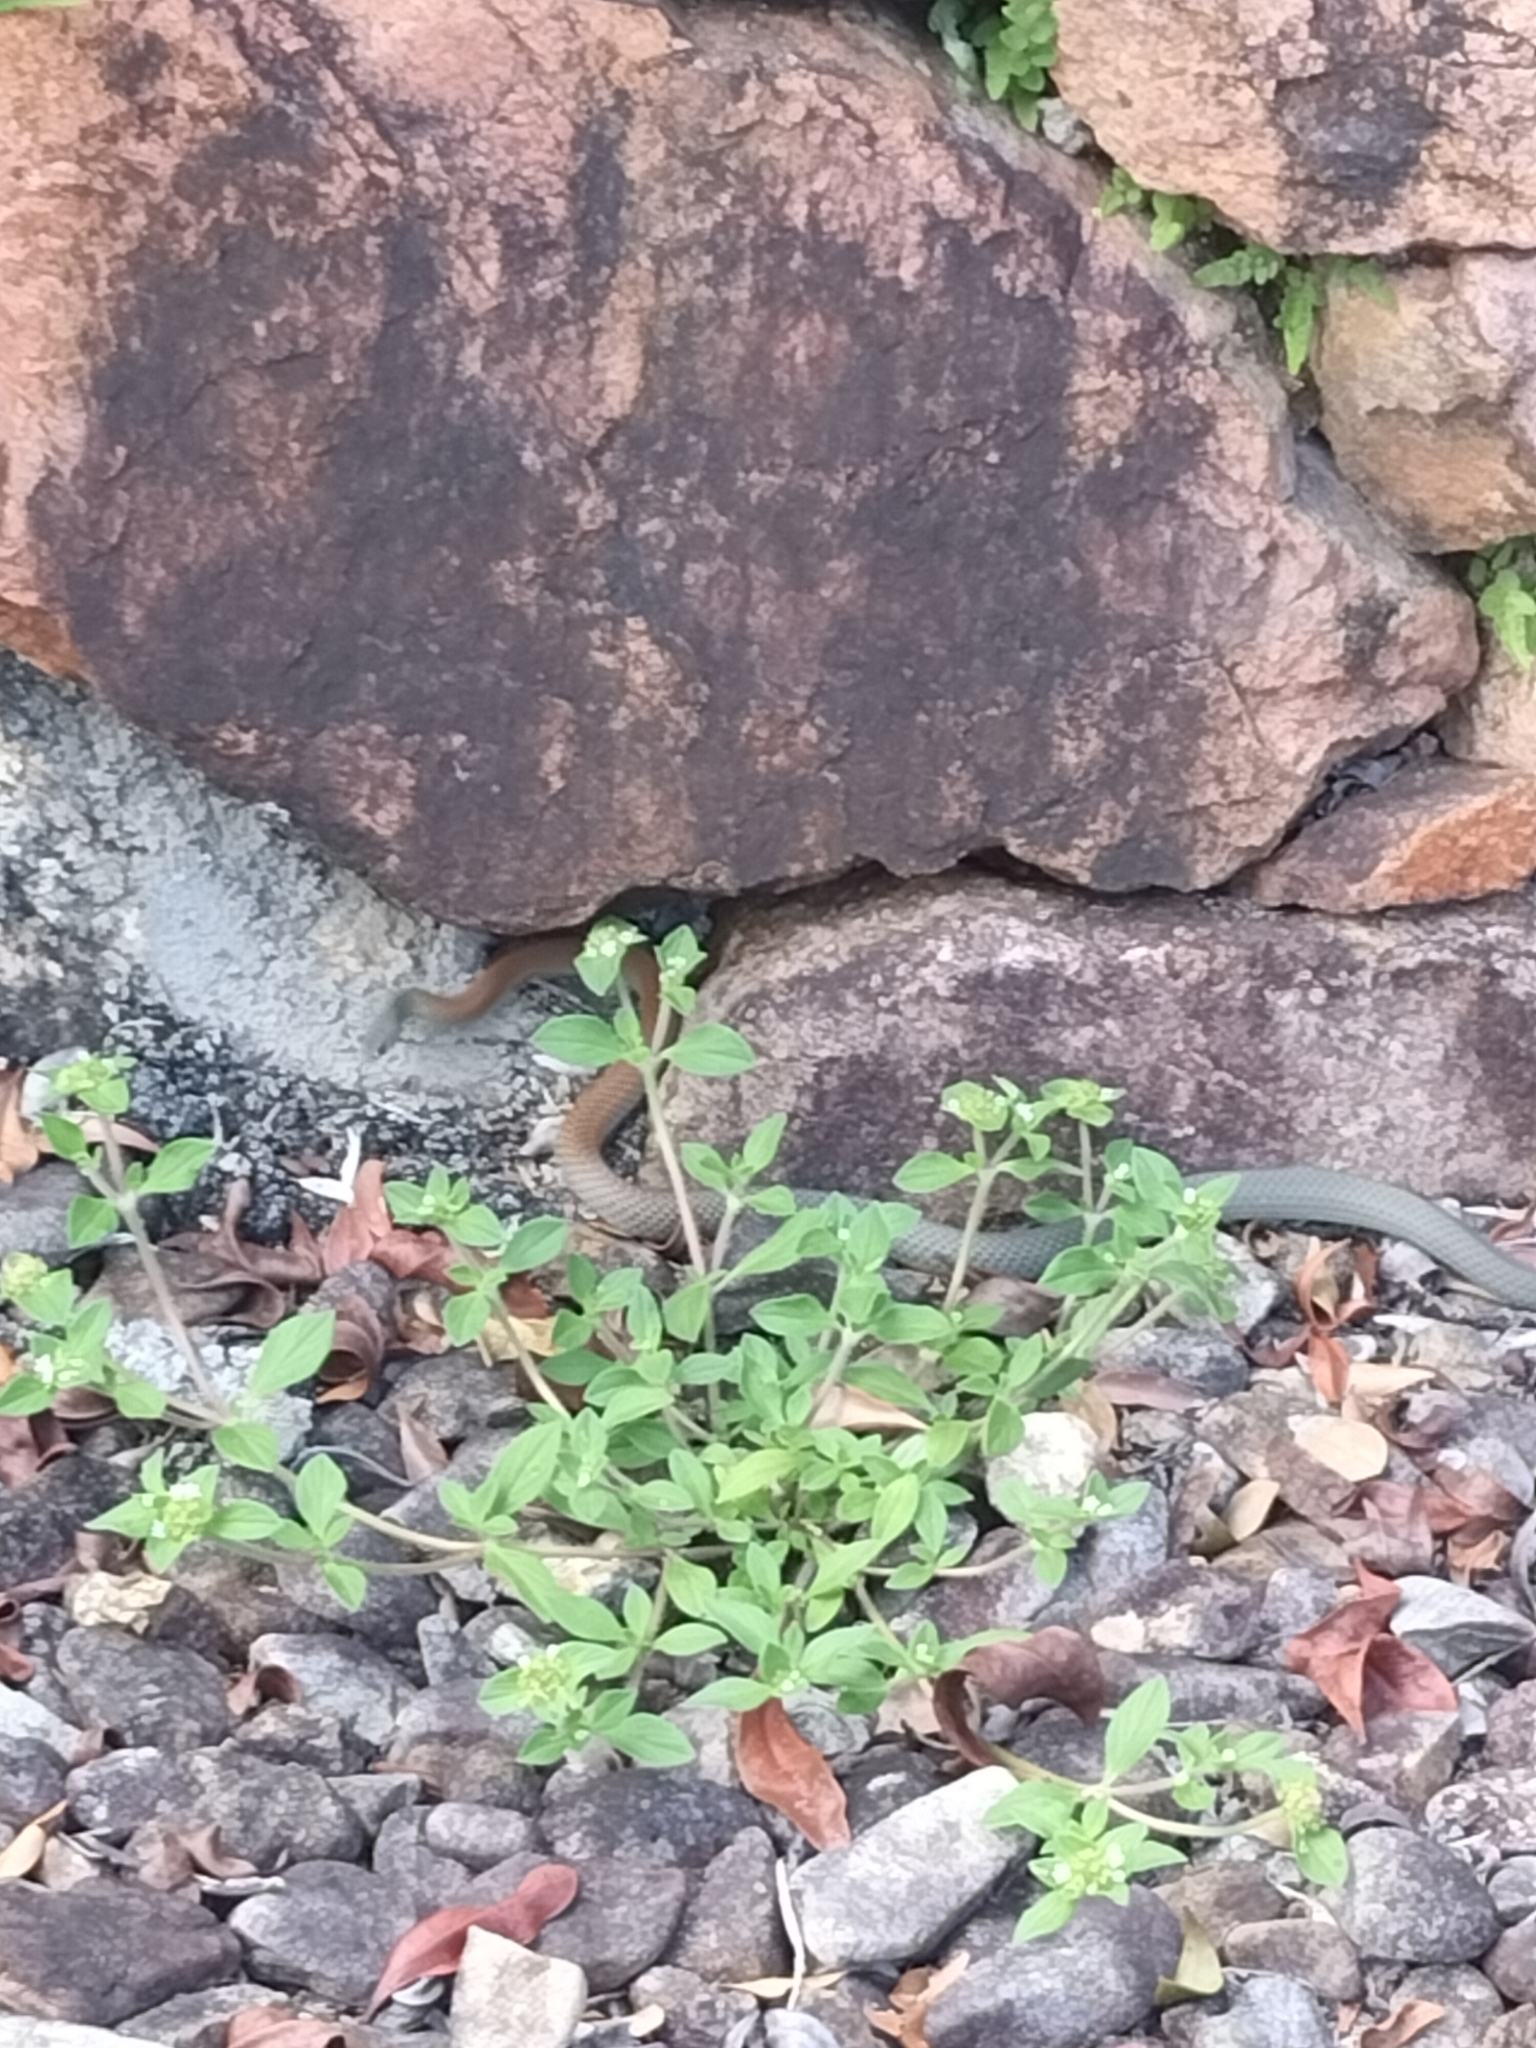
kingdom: Animalia
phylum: Chordata
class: Squamata
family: Elapidae
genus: Demansia
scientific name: Demansia psammophis
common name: Yellow-faced whip snake
